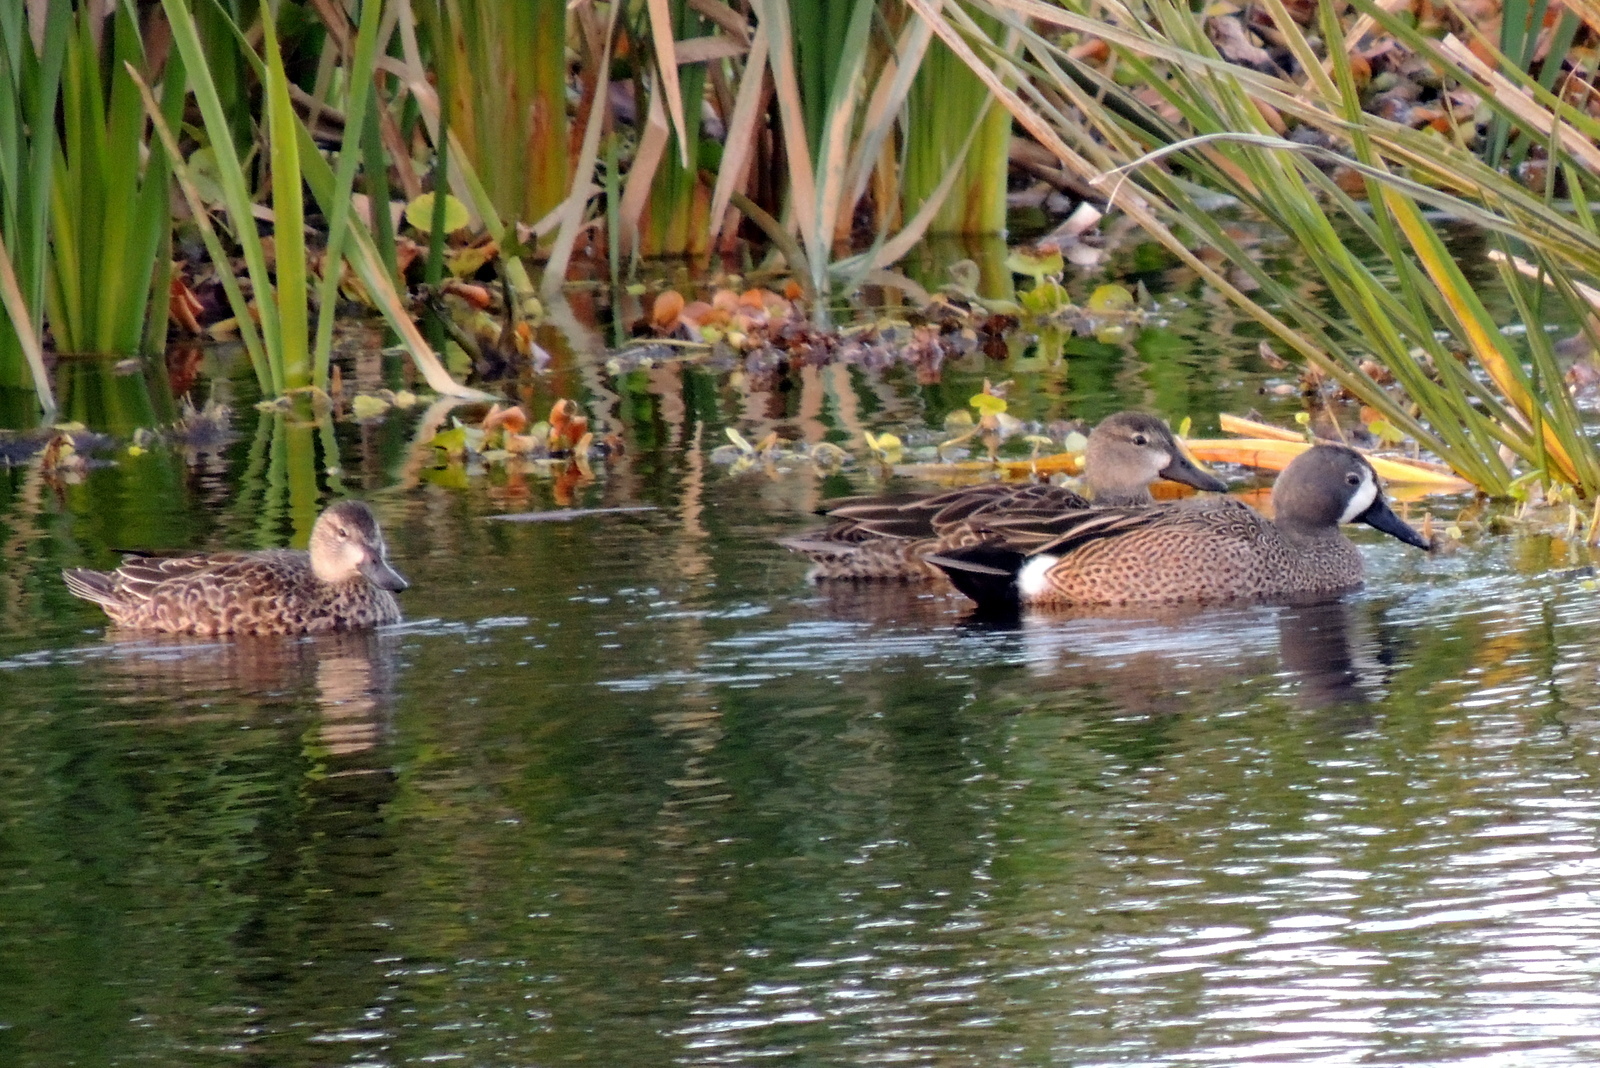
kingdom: Animalia
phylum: Chordata
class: Aves
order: Anseriformes
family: Anatidae
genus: Spatula
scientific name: Spatula discors
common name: Blue-winged teal
